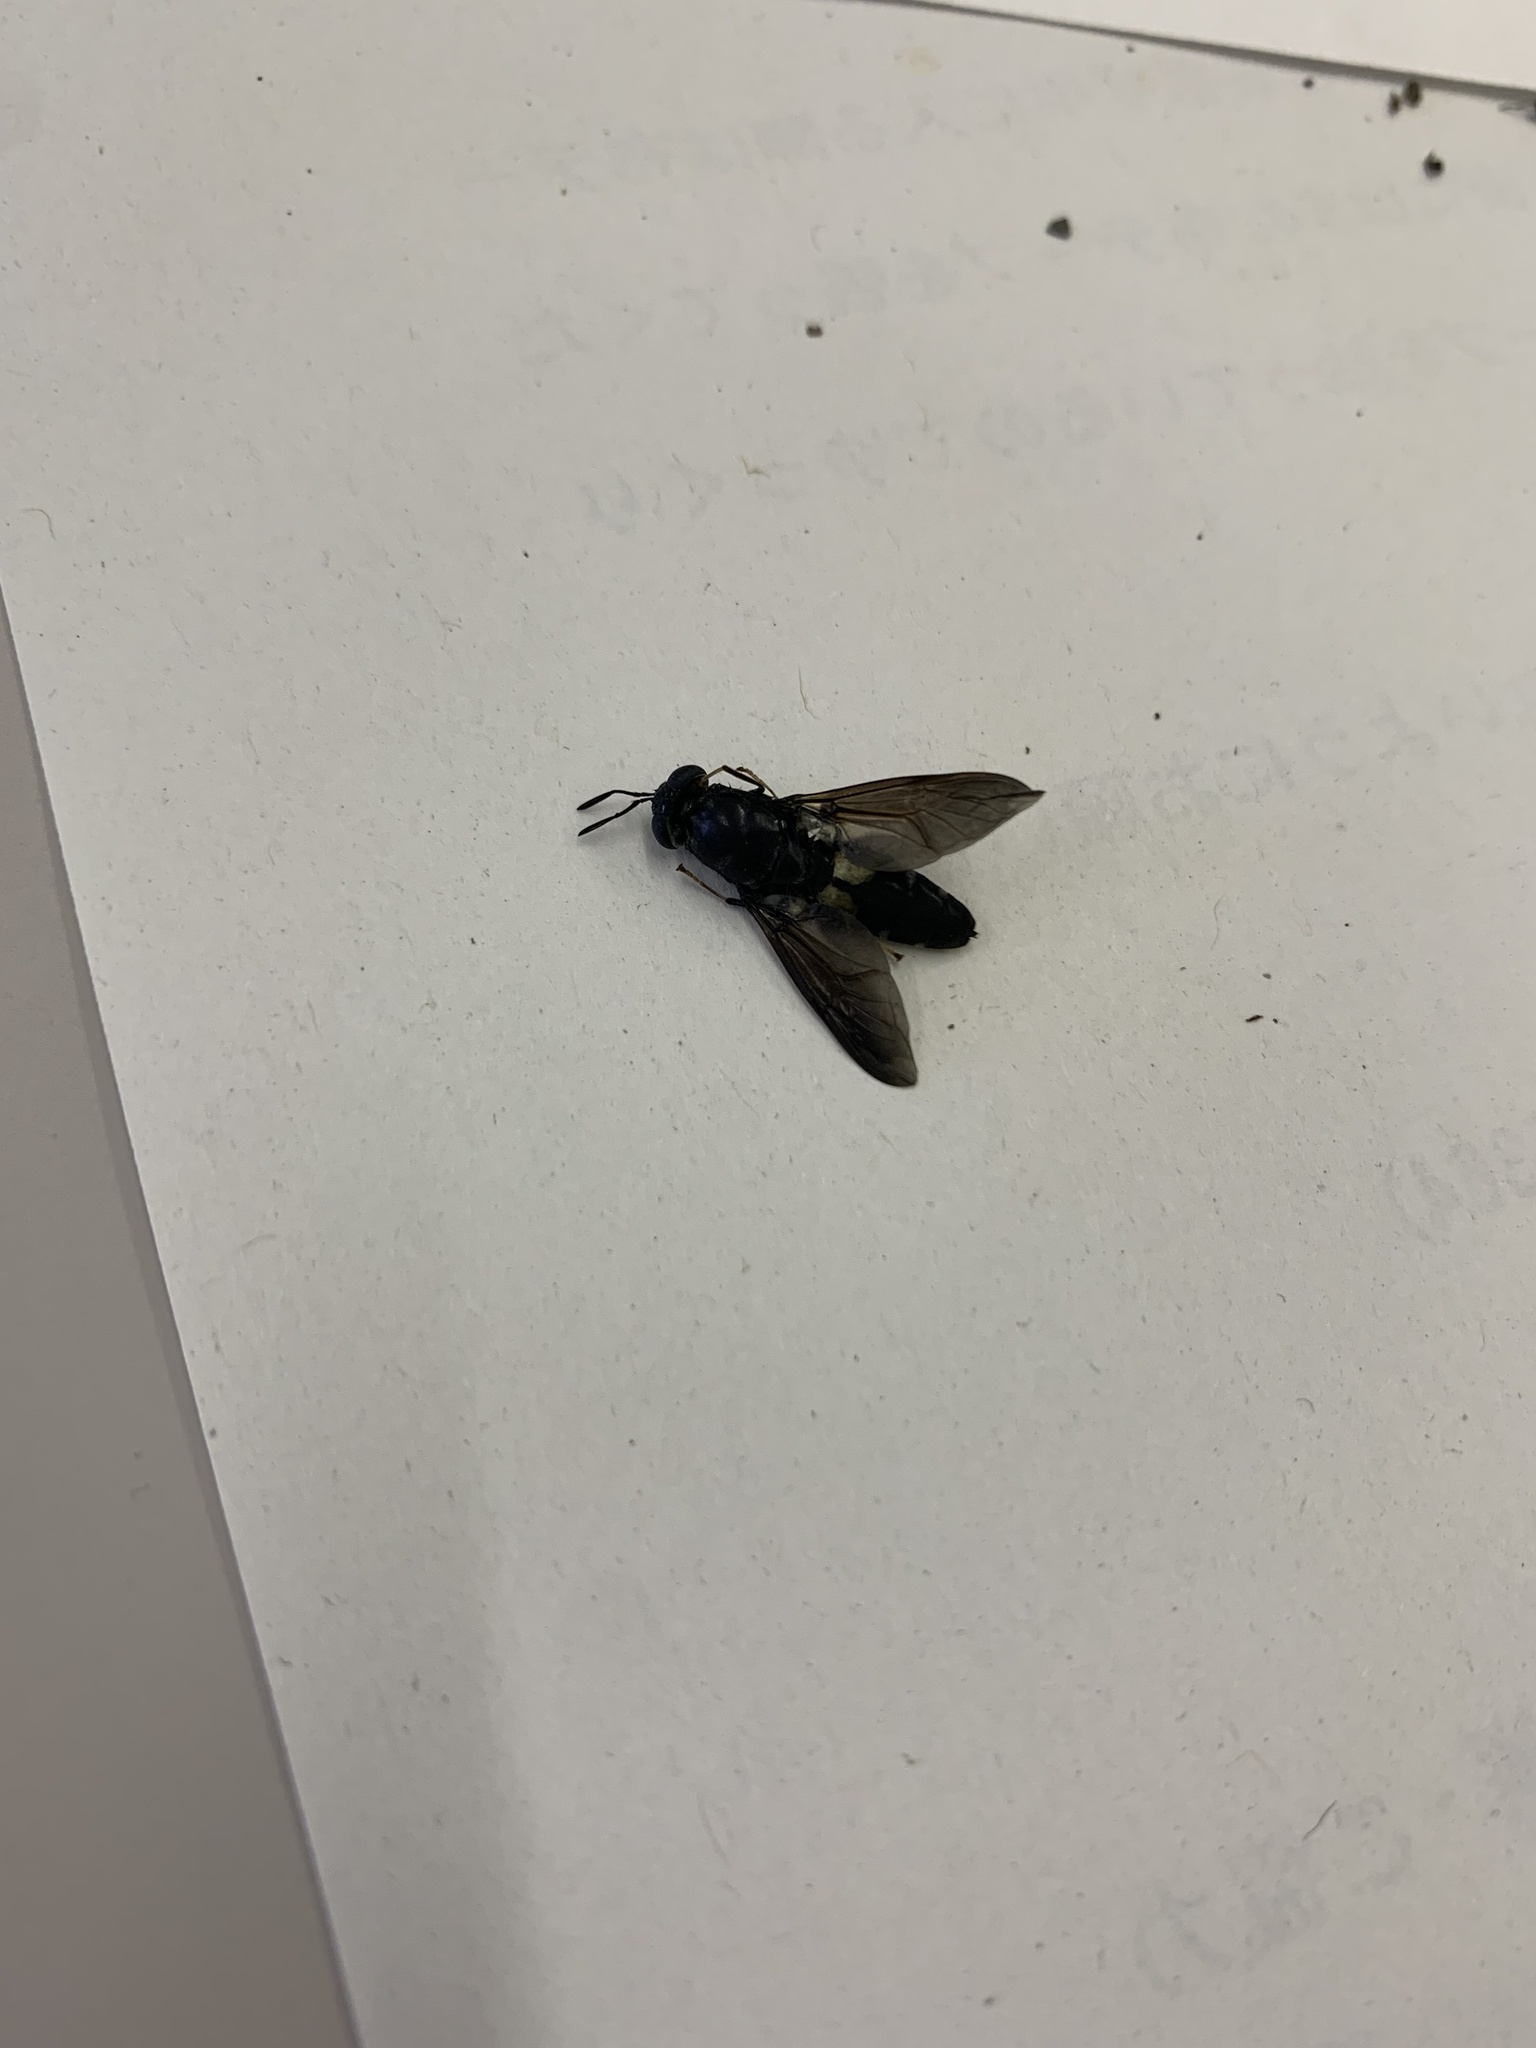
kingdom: Animalia
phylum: Arthropoda
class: Insecta
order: Diptera
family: Stratiomyidae
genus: Hermetia
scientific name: Hermetia illucens
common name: Black soldier fly
